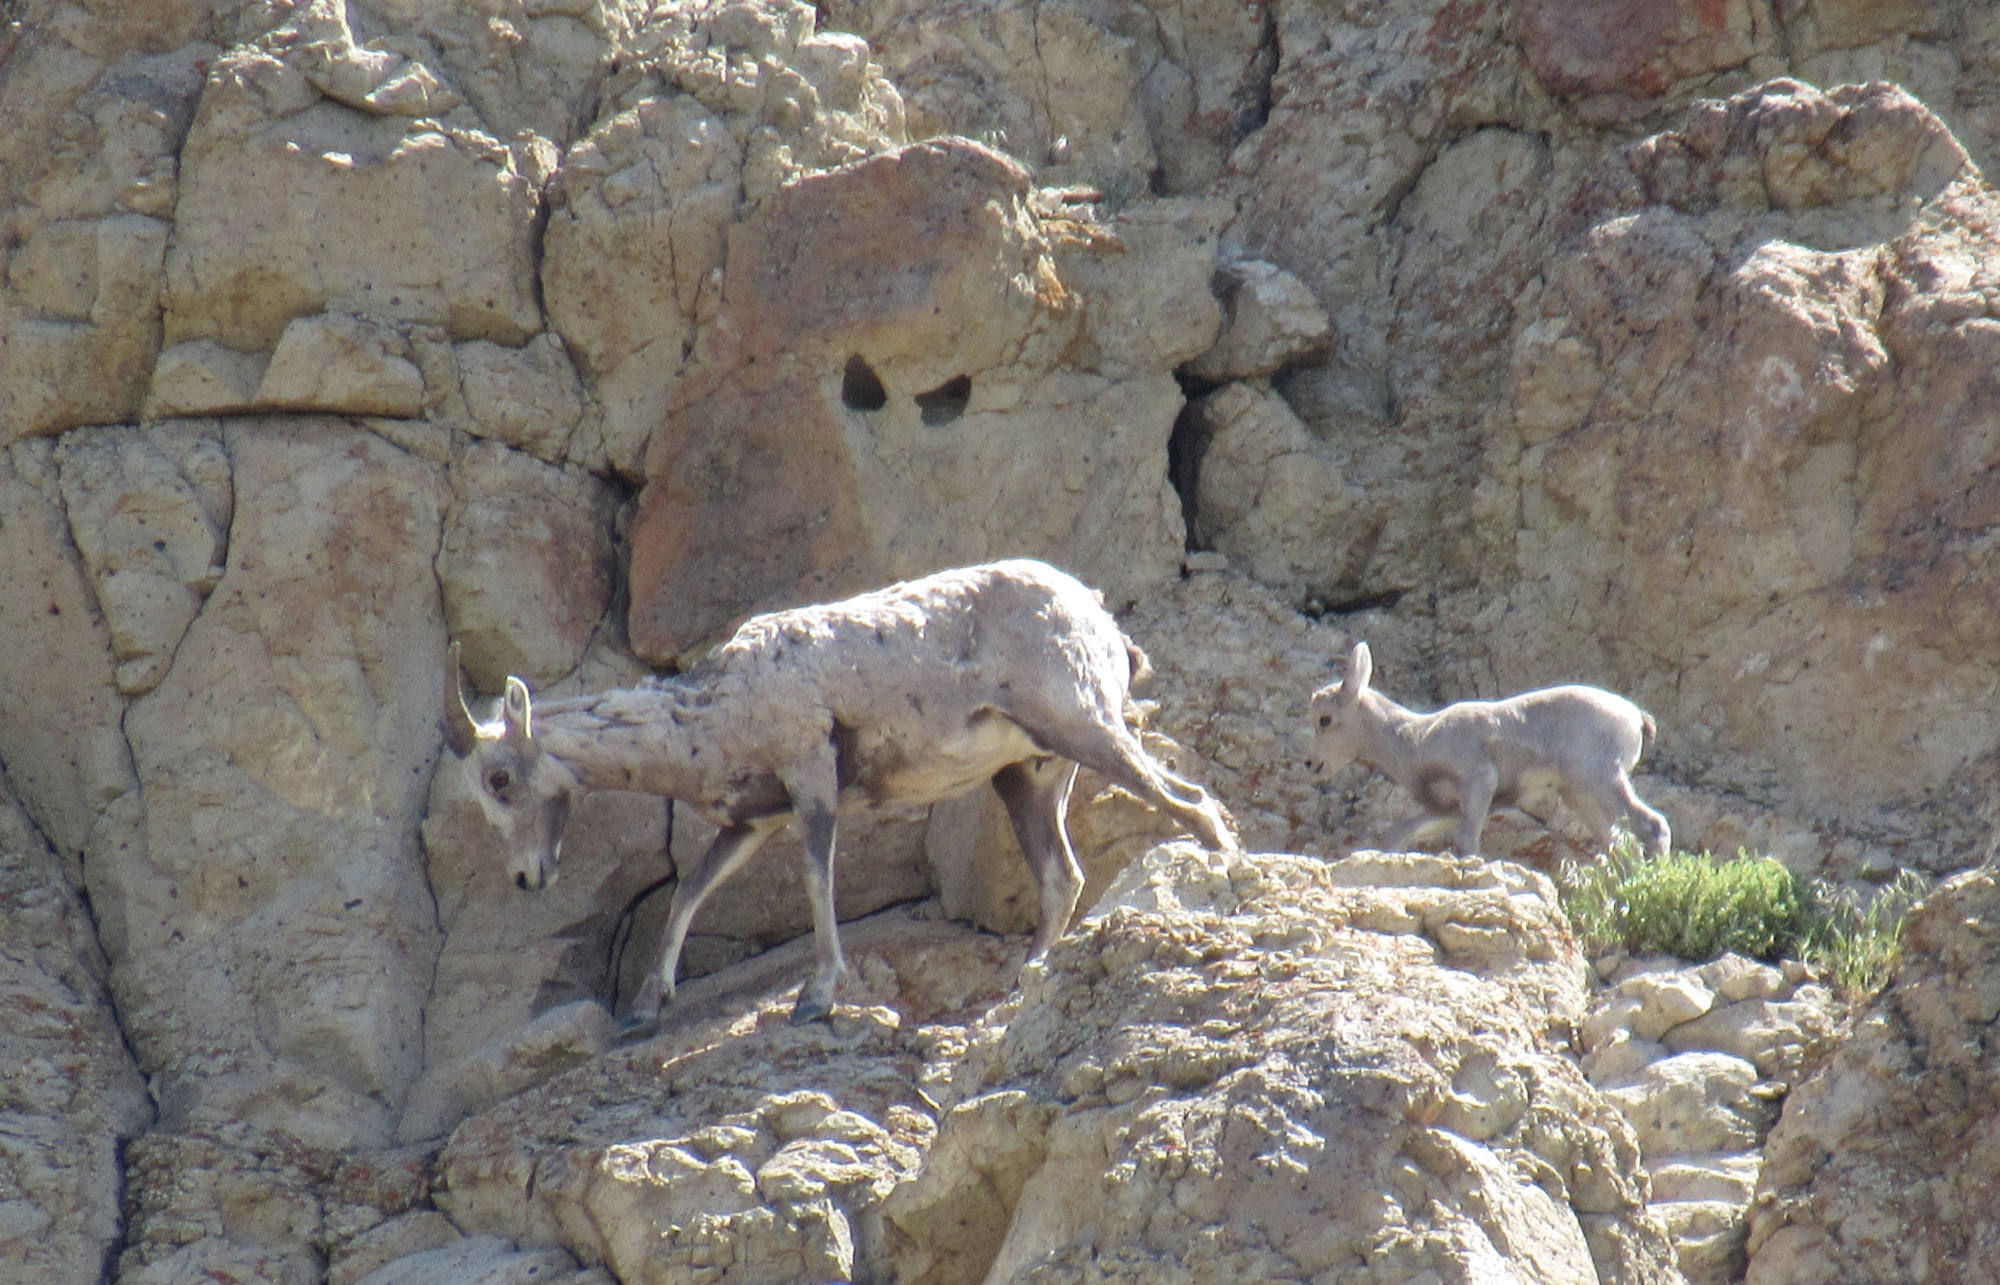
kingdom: Animalia
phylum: Chordata
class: Mammalia
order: Artiodactyla
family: Bovidae
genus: Ovis
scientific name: Ovis canadensis
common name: Bighorn sheep
